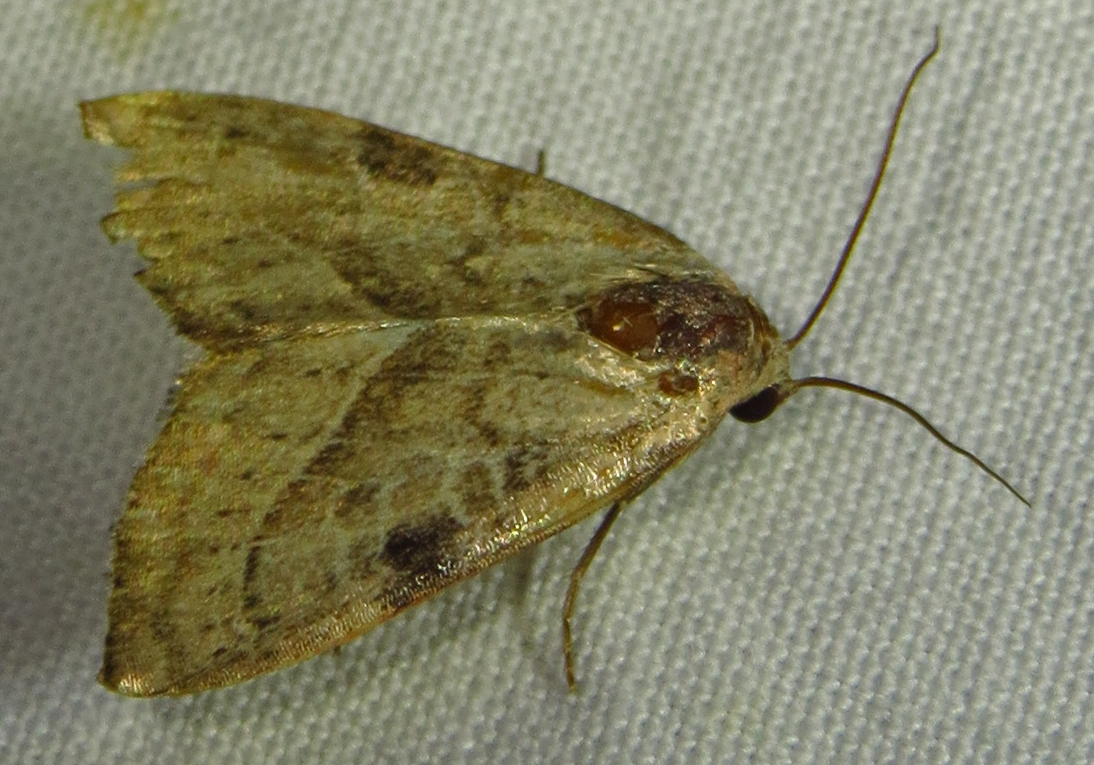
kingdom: Animalia
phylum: Arthropoda
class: Insecta
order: Lepidoptera
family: Noctuidae
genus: Galgula
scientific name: Galgula partita
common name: Wedgeling
